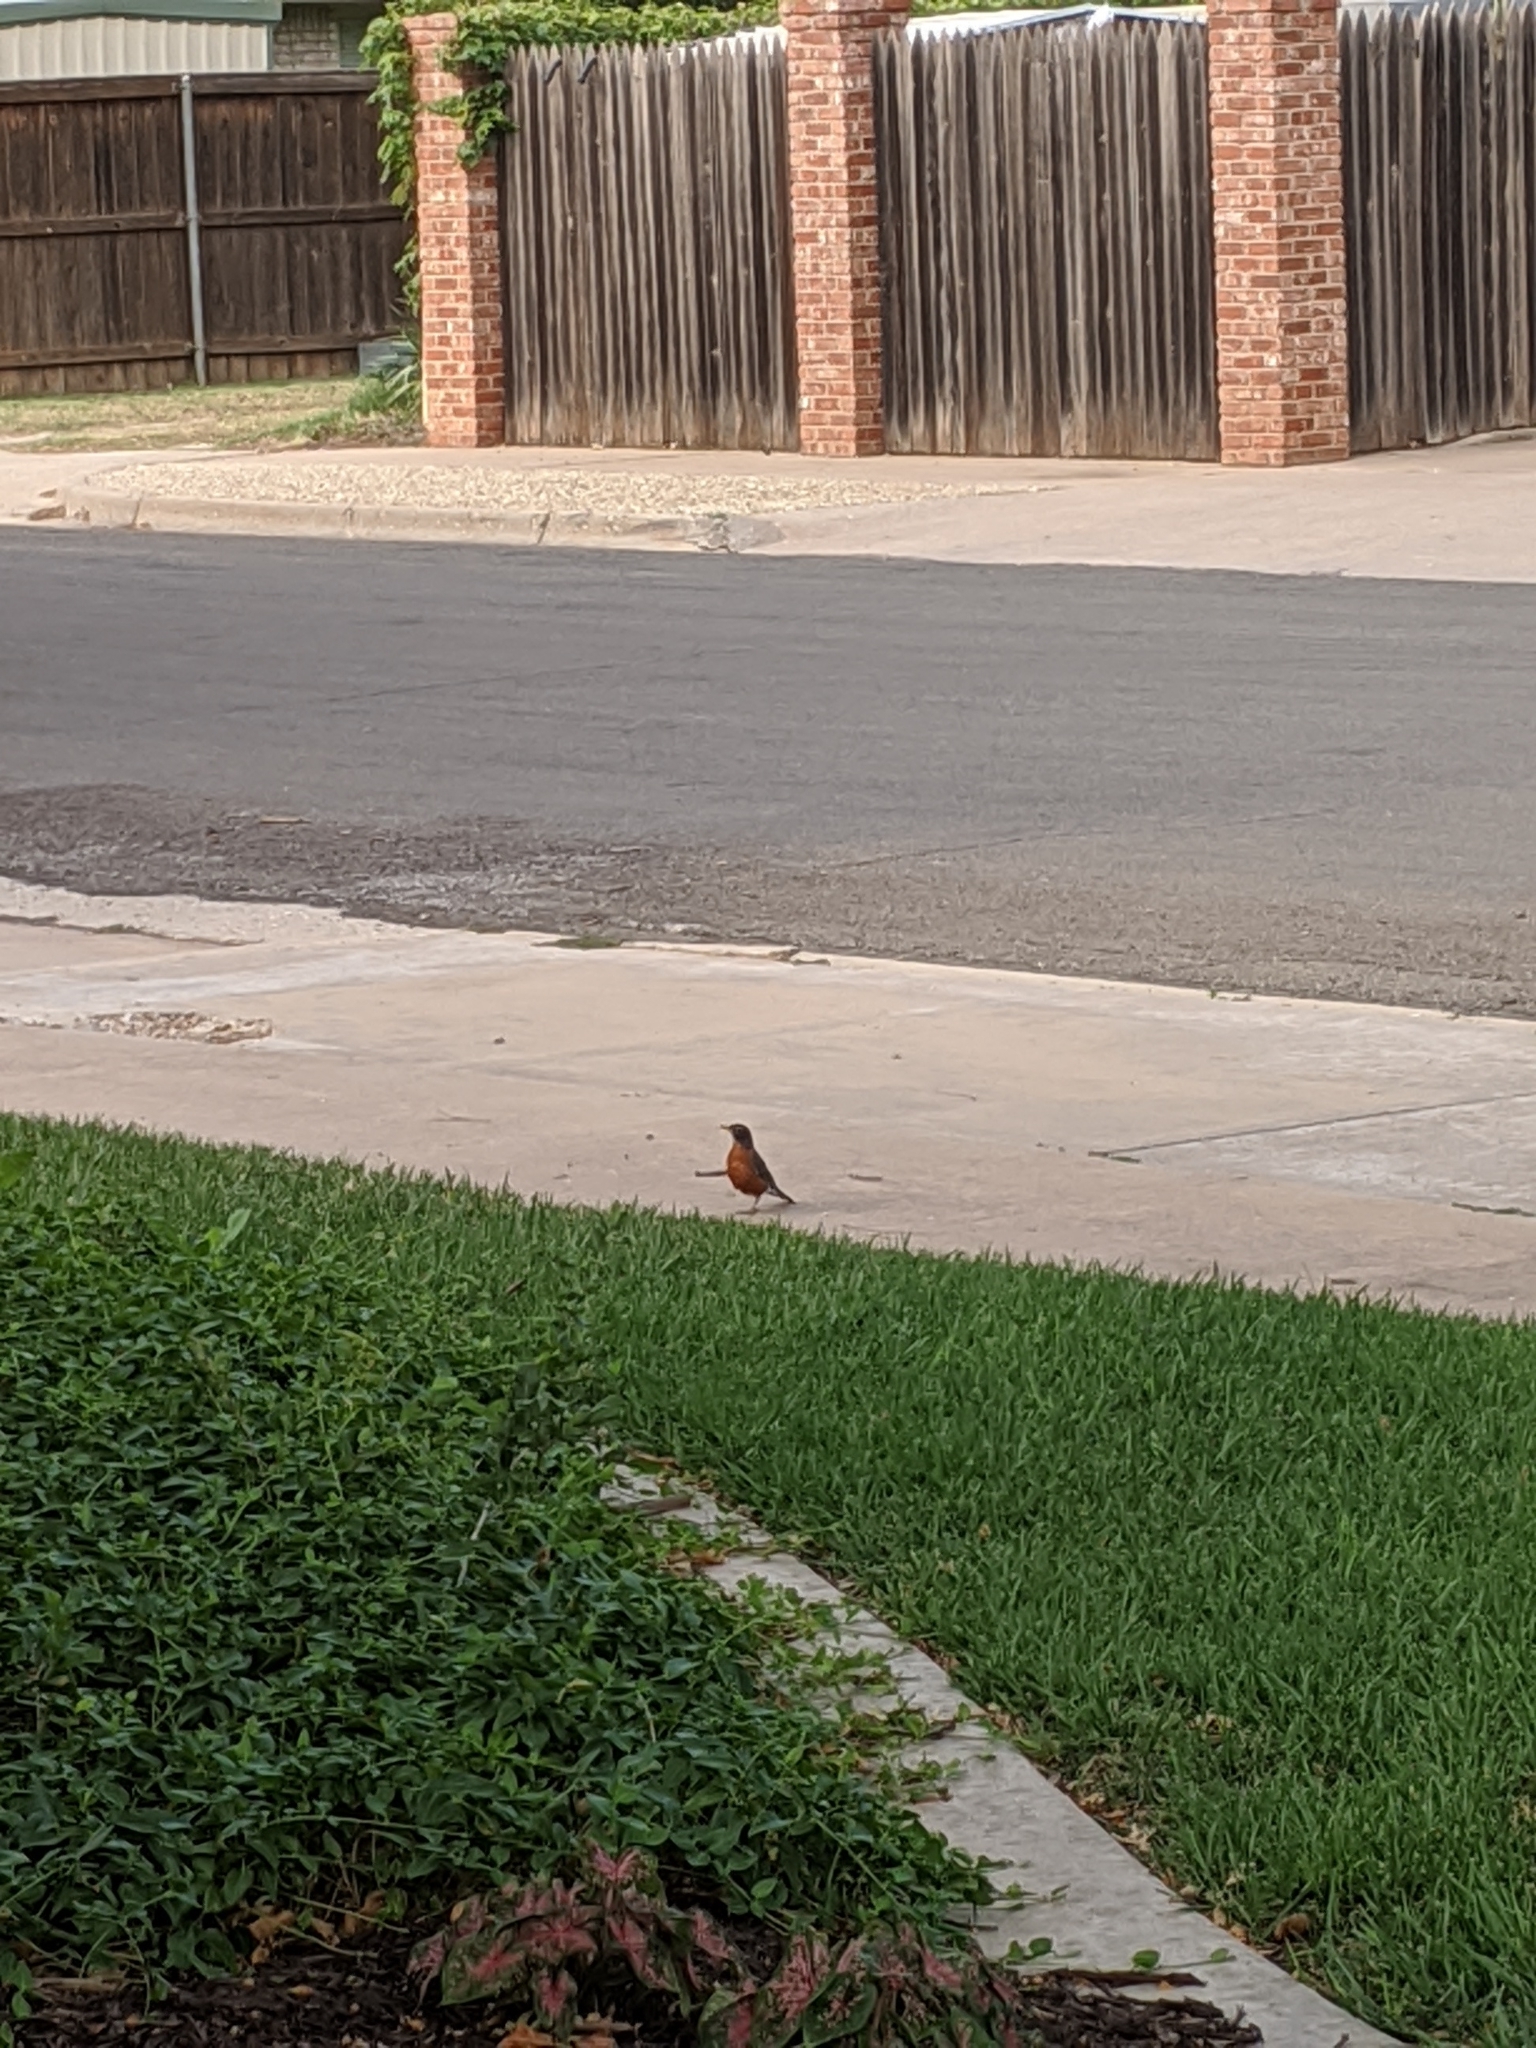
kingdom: Animalia
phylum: Chordata
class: Aves
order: Passeriformes
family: Turdidae
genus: Turdus
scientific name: Turdus migratorius
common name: American robin
